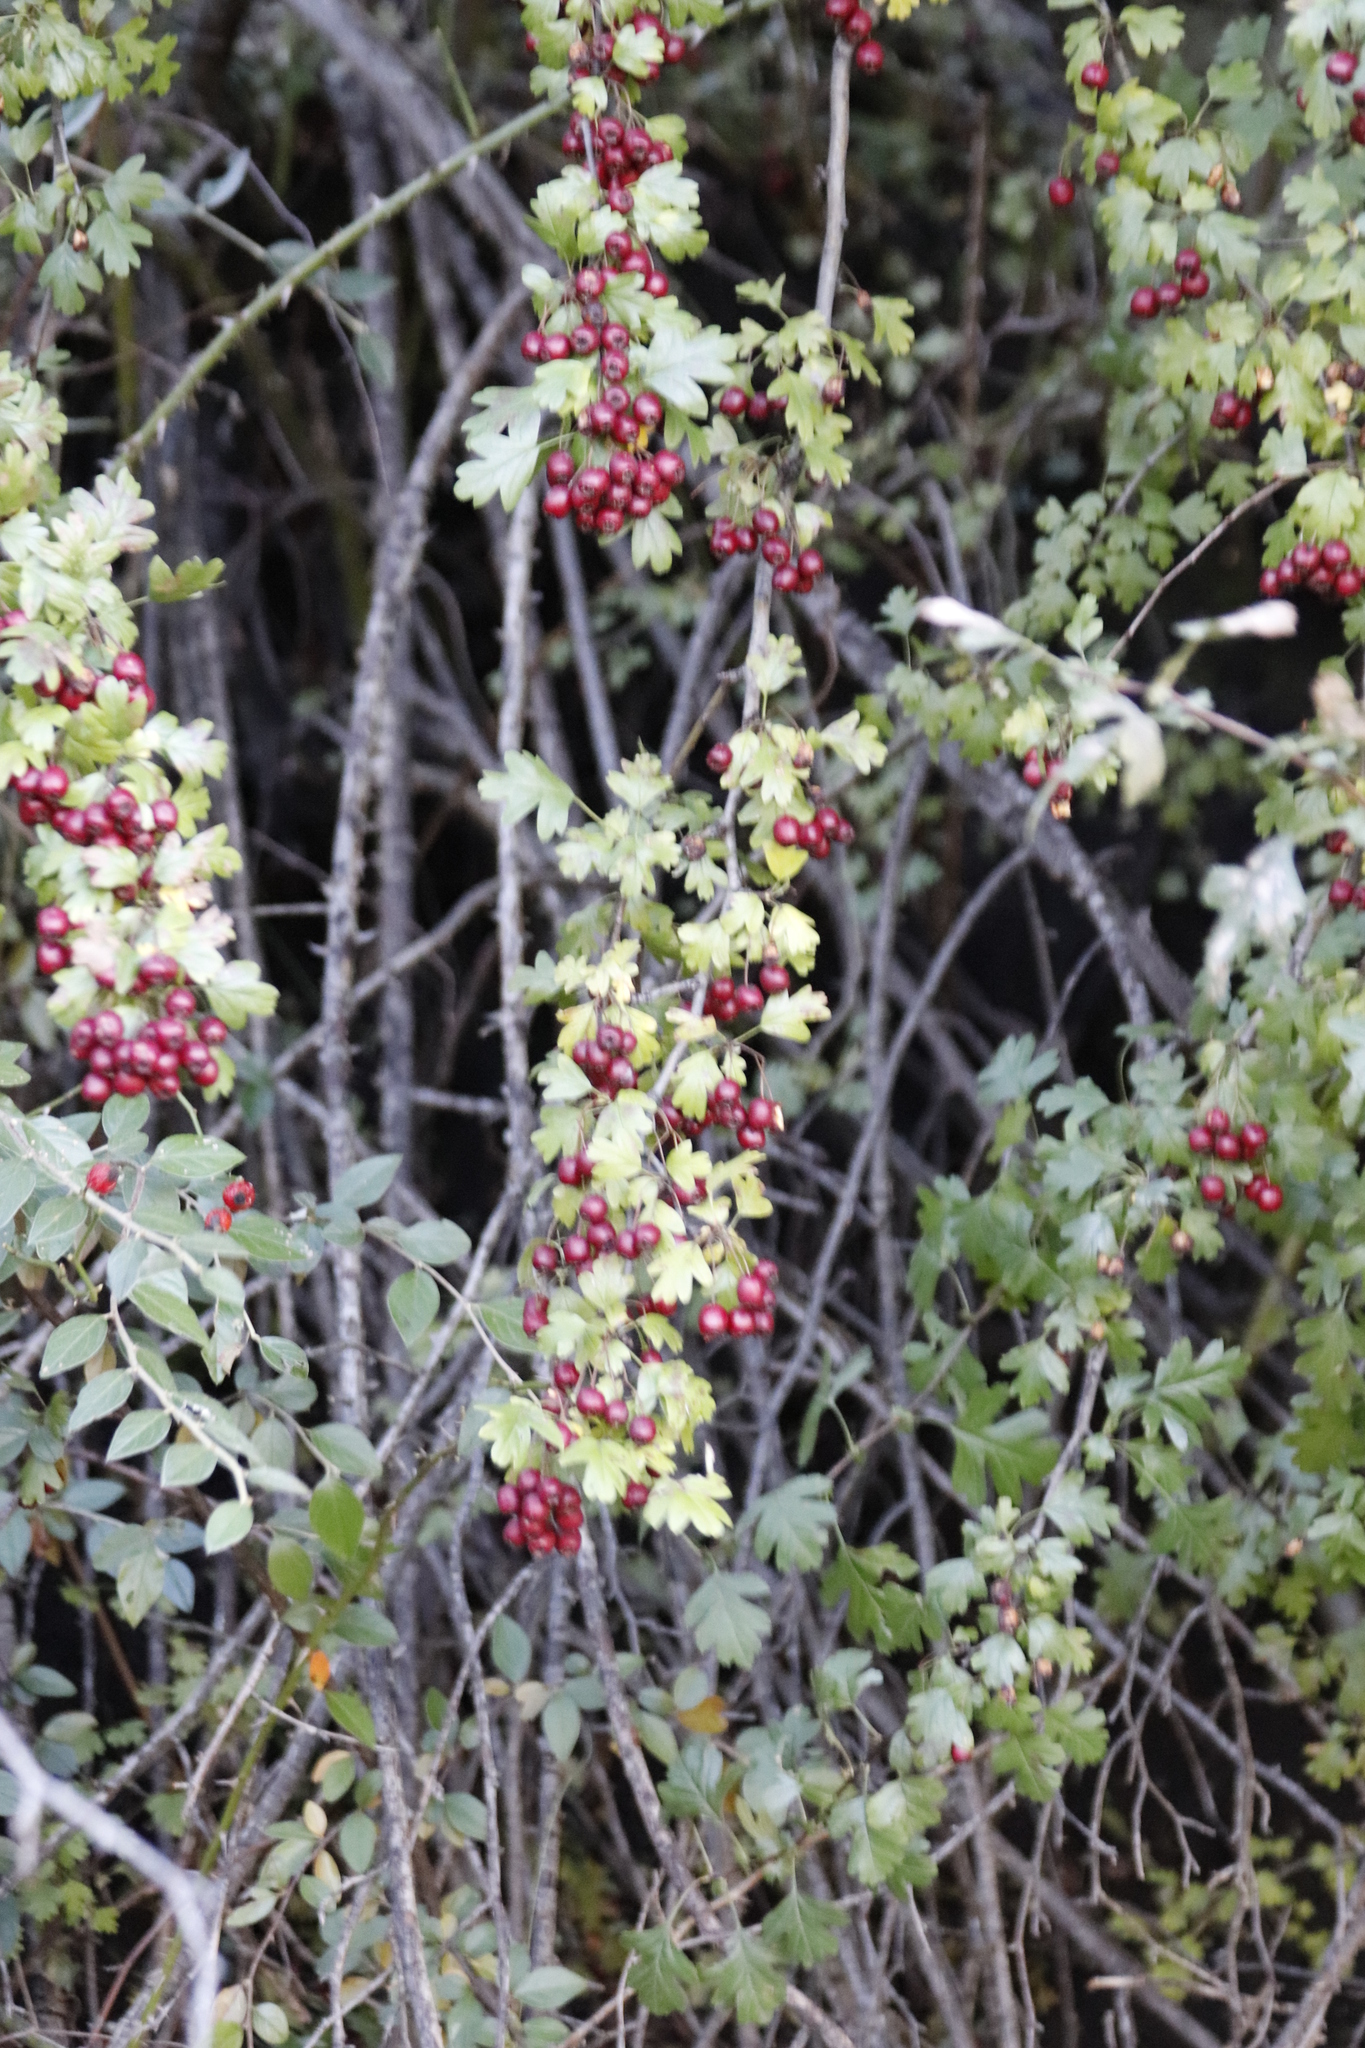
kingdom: Plantae
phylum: Tracheophyta
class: Magnoliopsida
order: Rosales
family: Rosaceae
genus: Crataegus
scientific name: Crataegus laevigata
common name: Midland hawthorn
